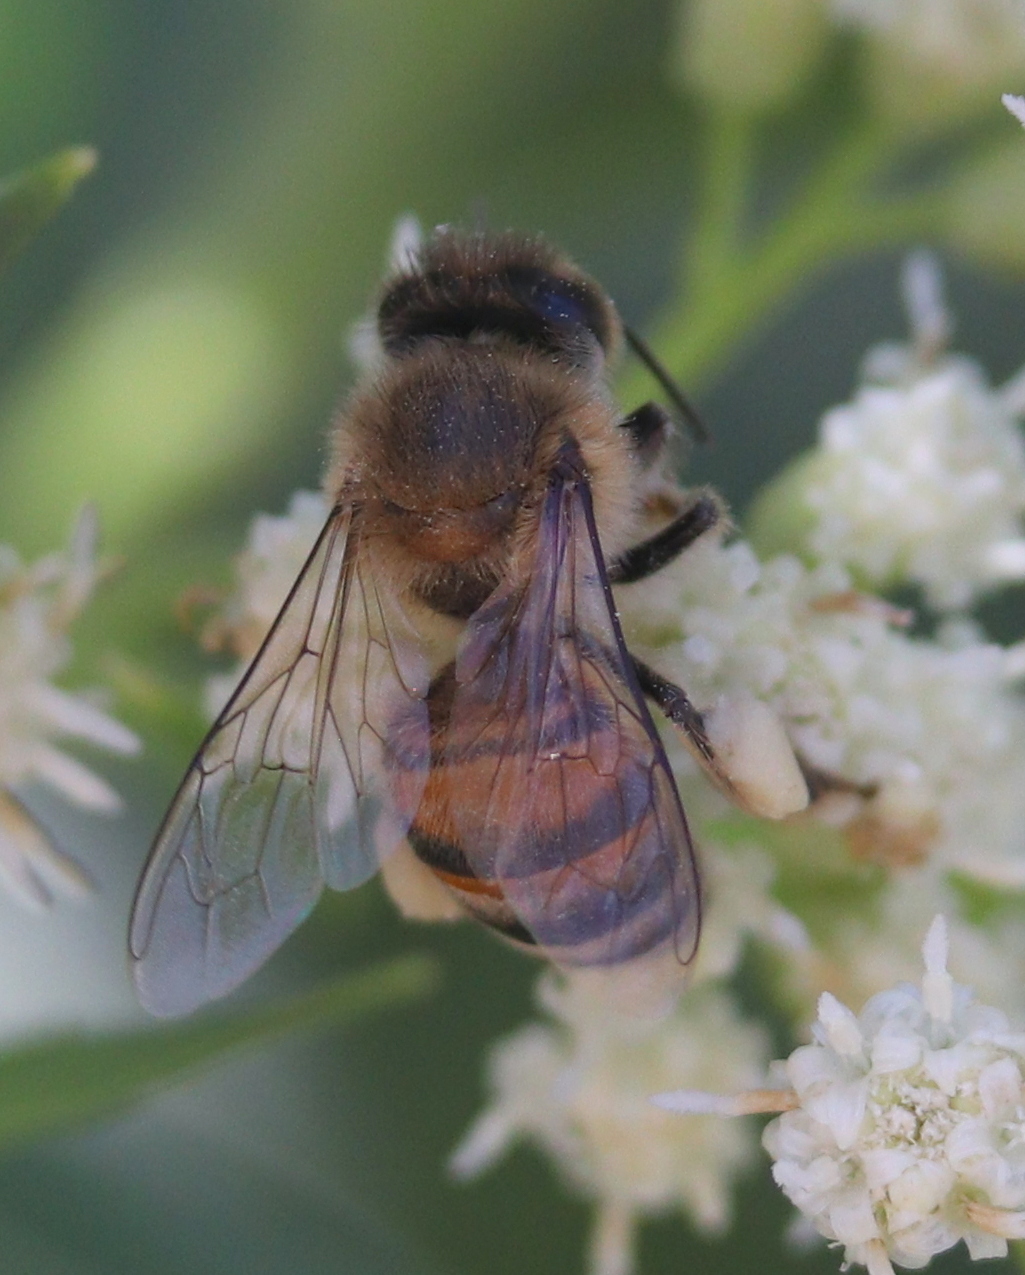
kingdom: Animalia
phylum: Arthropoda
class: Insecta
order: Hymenoptera
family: Apidae
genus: Apis
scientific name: Apis mellifera
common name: Honey bee
